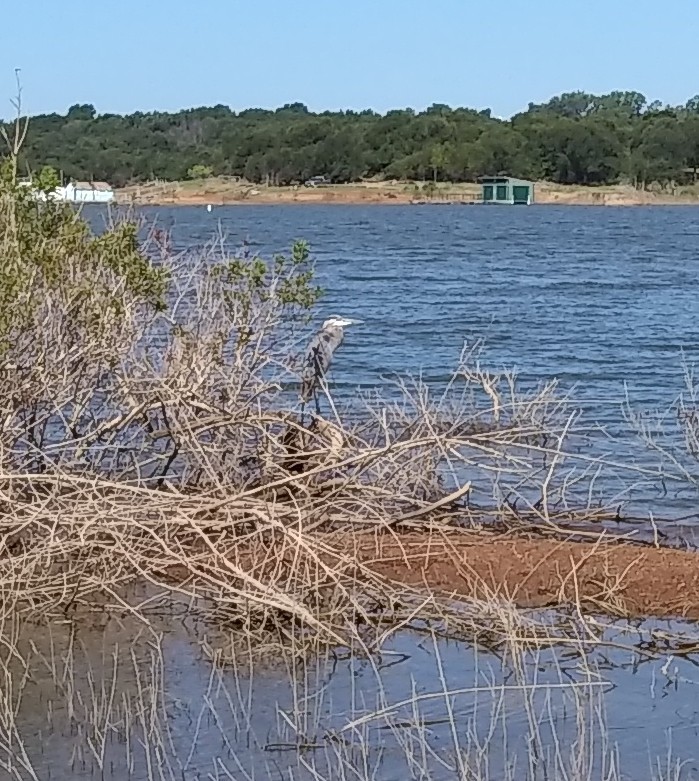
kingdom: Animalia
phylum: Chordata
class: Aves
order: Pelecaniformes
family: Ardeidae
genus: Ardea
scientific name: Ardea herodias
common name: Great blue heron
